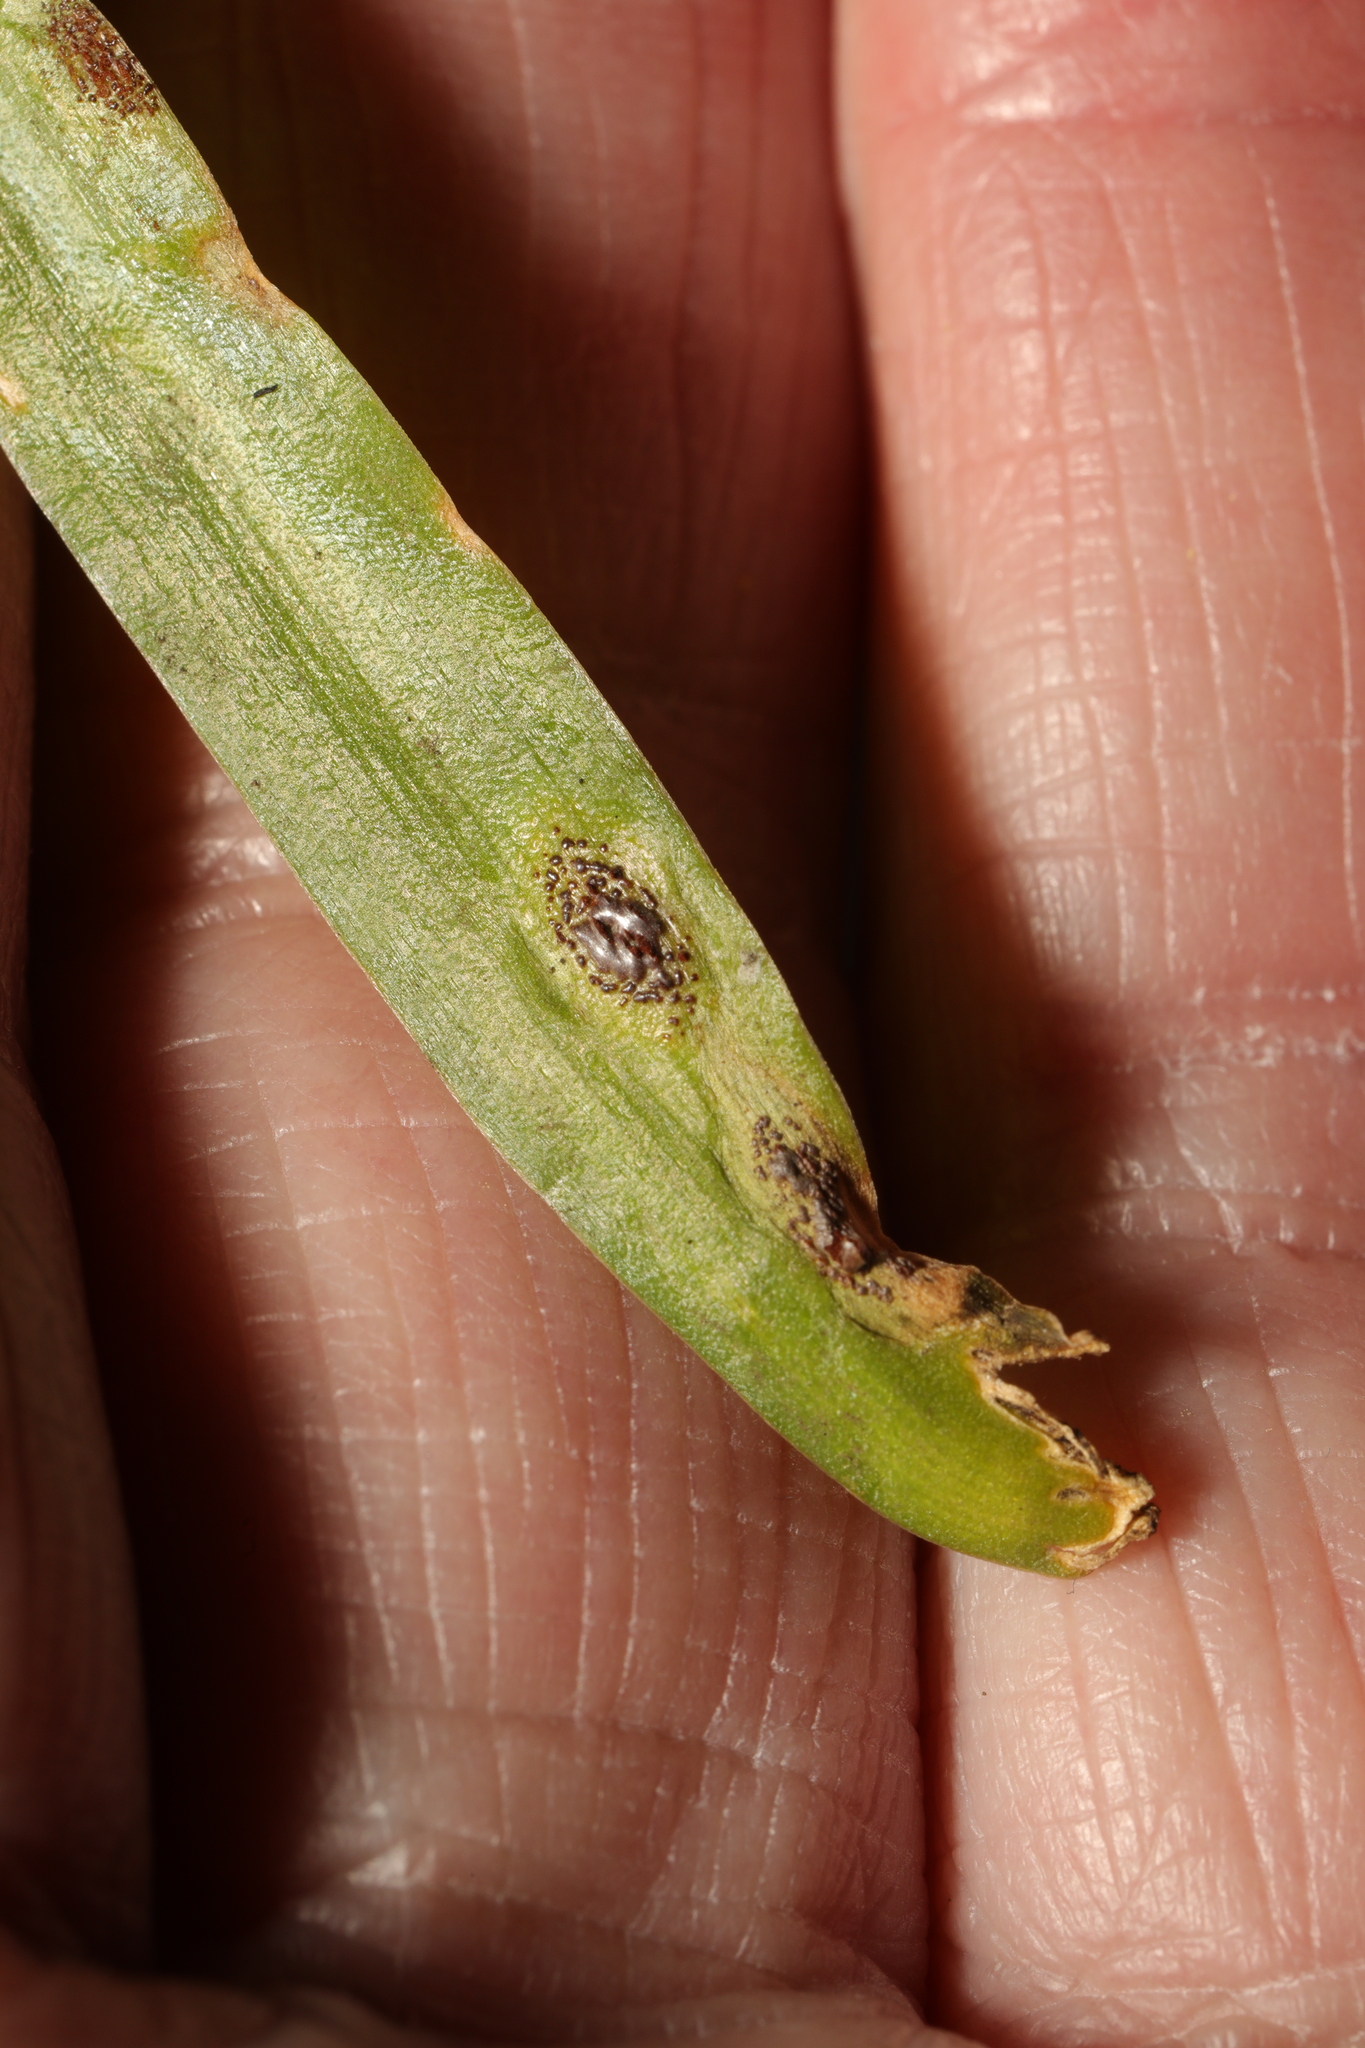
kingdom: Fungi
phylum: Basidiomycota
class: Pucciniomycetes
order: Pucciniales
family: Pucciniaceae
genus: Uromyces
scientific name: Uromyces hyacinthi
